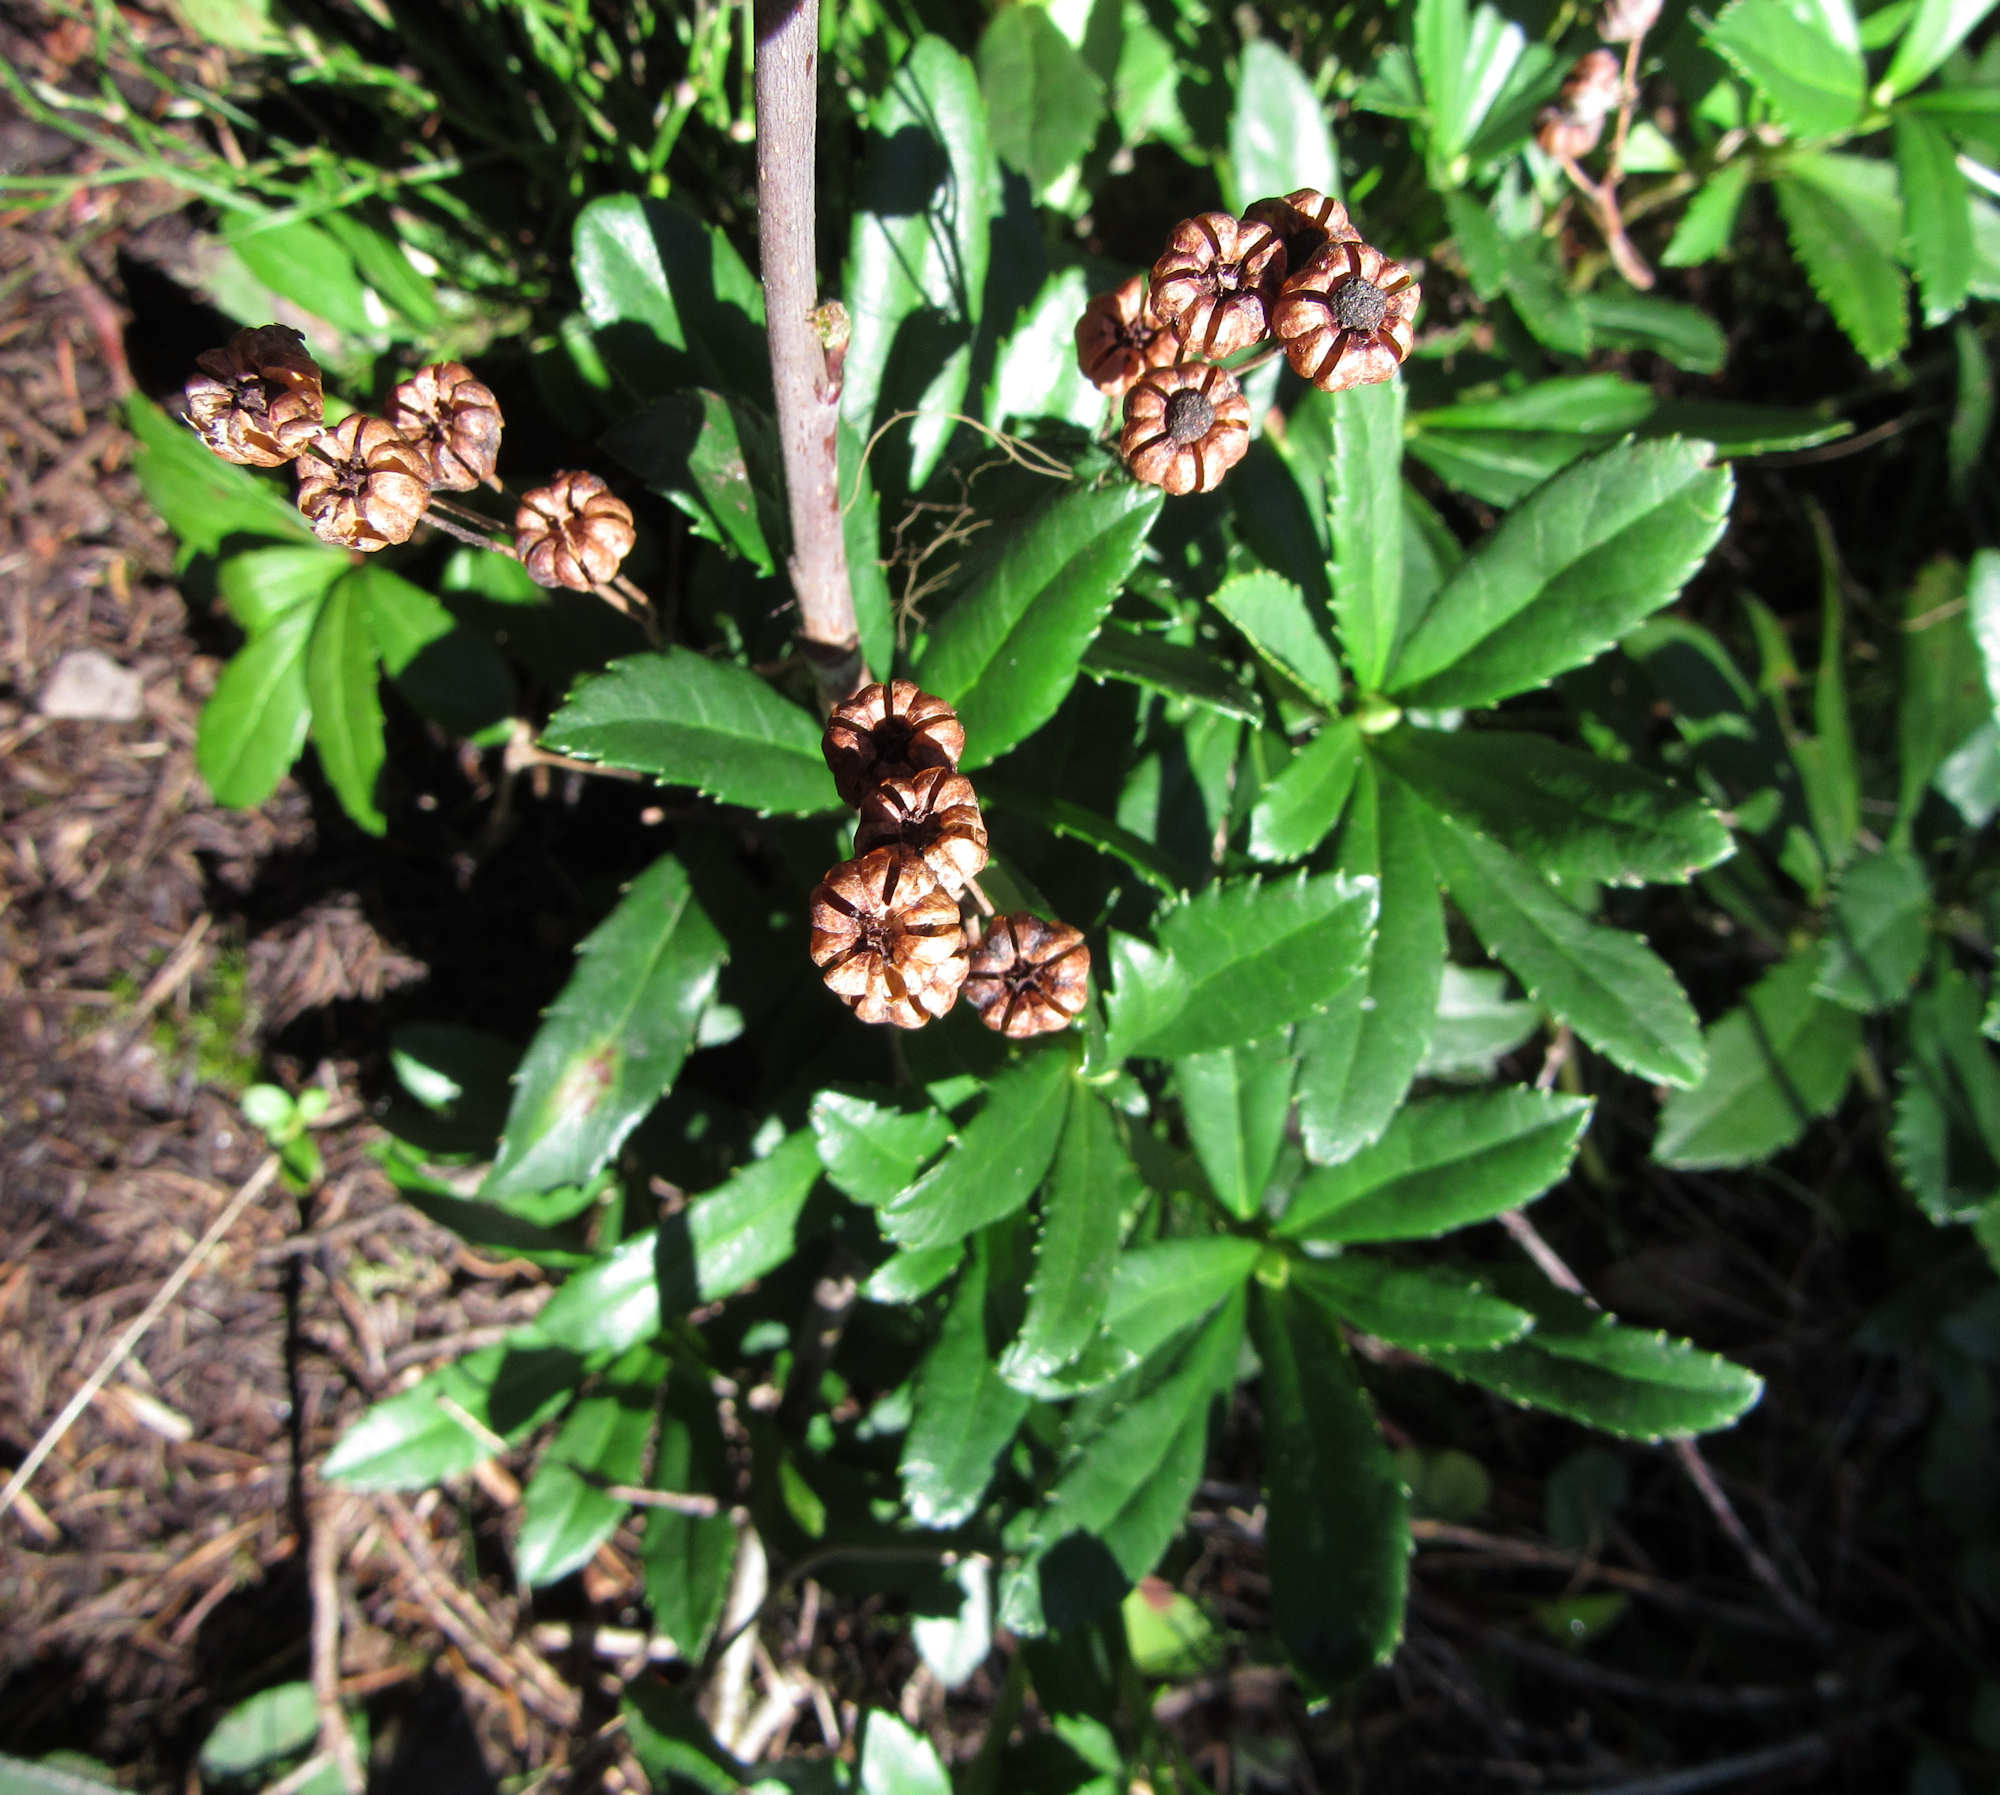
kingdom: Plantae
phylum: Tracheophyta
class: Magnoliopsida
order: Ericales
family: Ericaceae
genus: Chimaphila
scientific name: Chimaphila umbellata
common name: Pipsissewa
